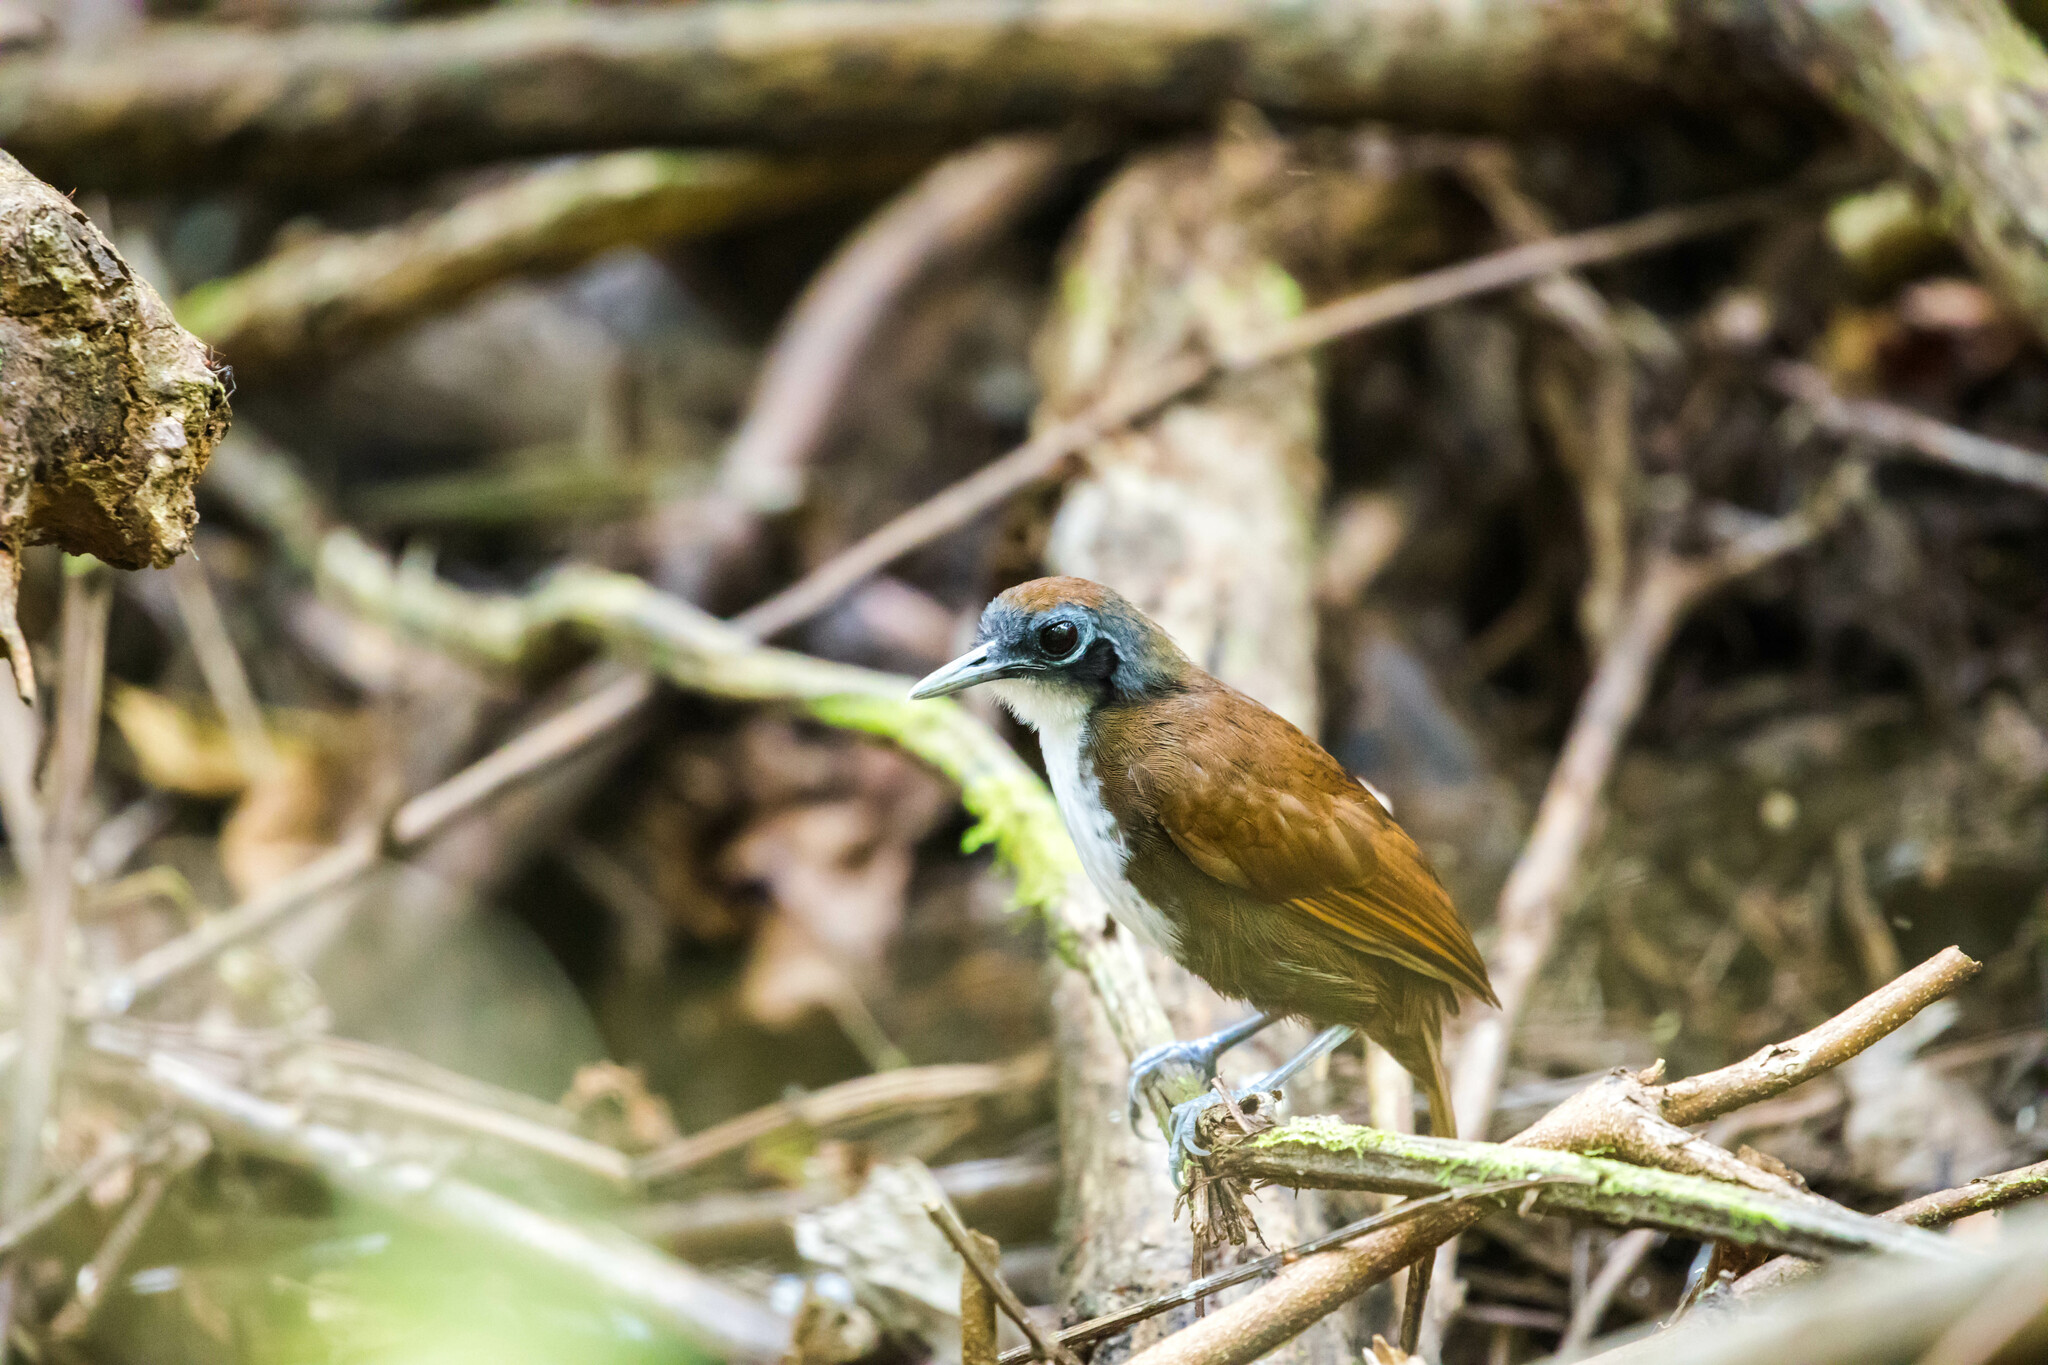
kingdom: Animalia
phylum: Chordata
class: Aves
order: Passeriformes
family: Thamnophilidae
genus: Gymnopithys
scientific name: Gymnopithys leucaspis
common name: White-cheeked antbird
